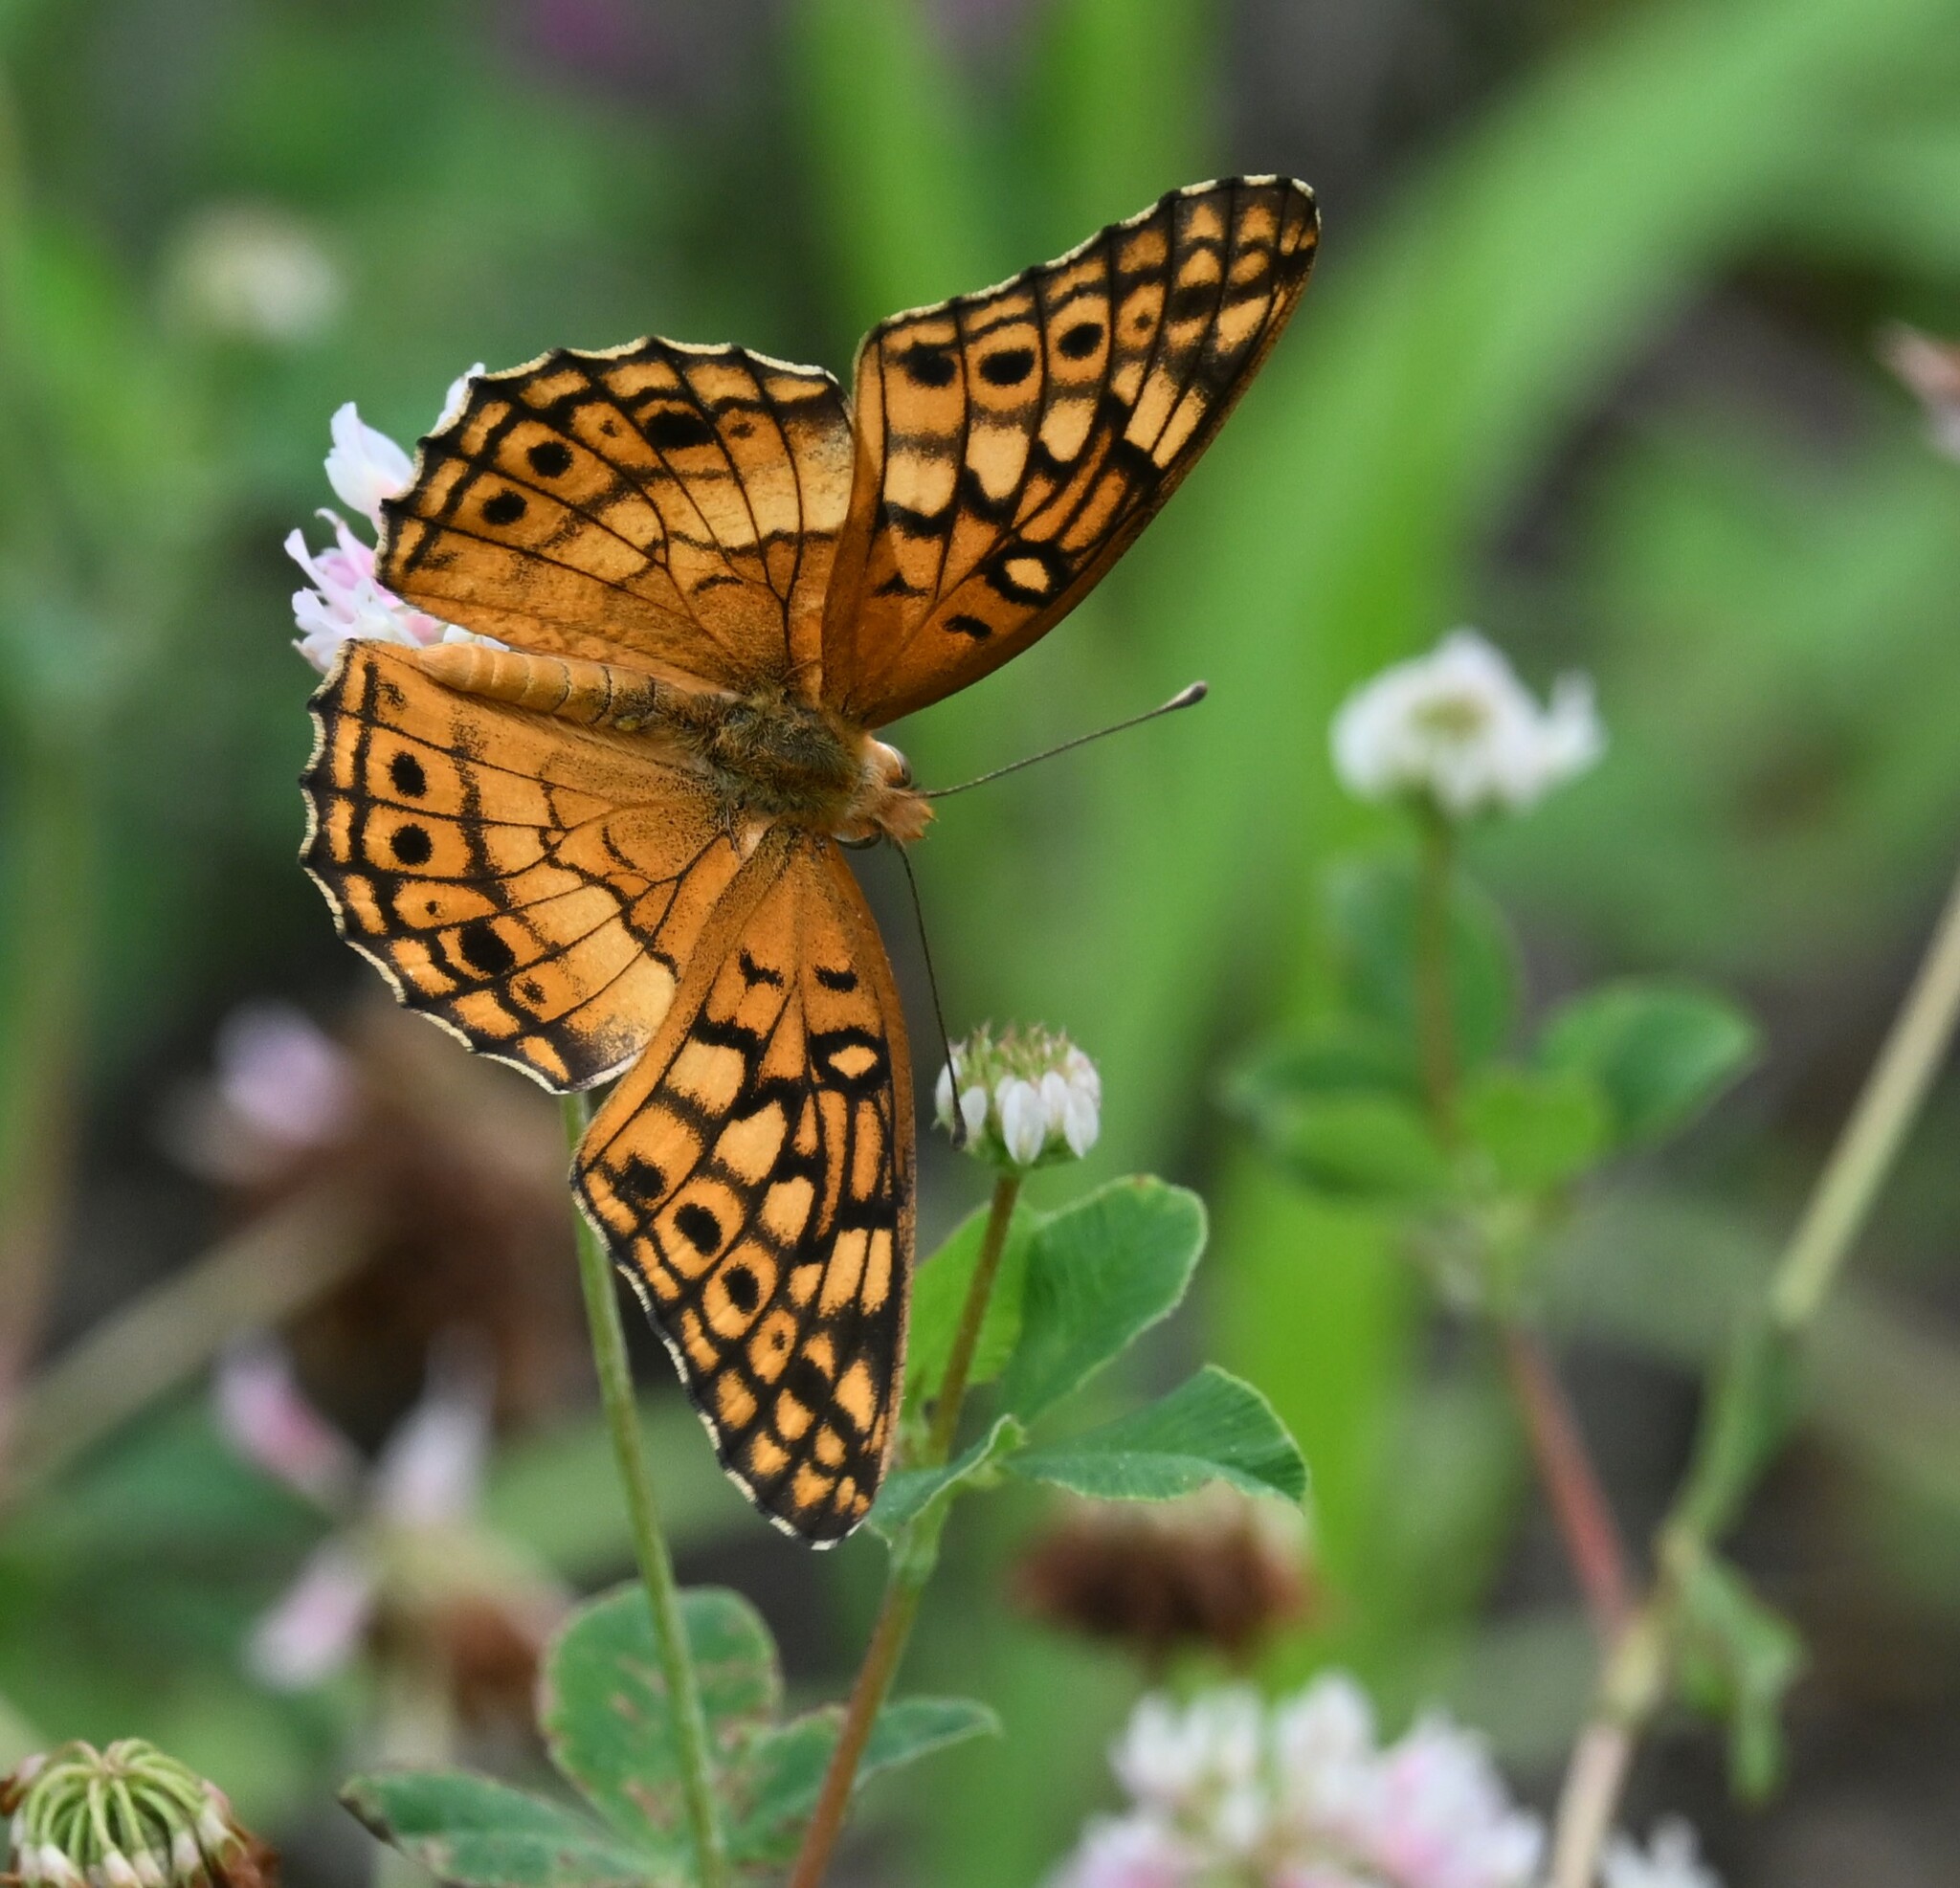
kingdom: Animalia
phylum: Arthropoda
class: Insecta
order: Lepidoptera
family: Nymphalidae
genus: Euptoieta
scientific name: Euptoieta claudia
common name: Variegated fritillary
